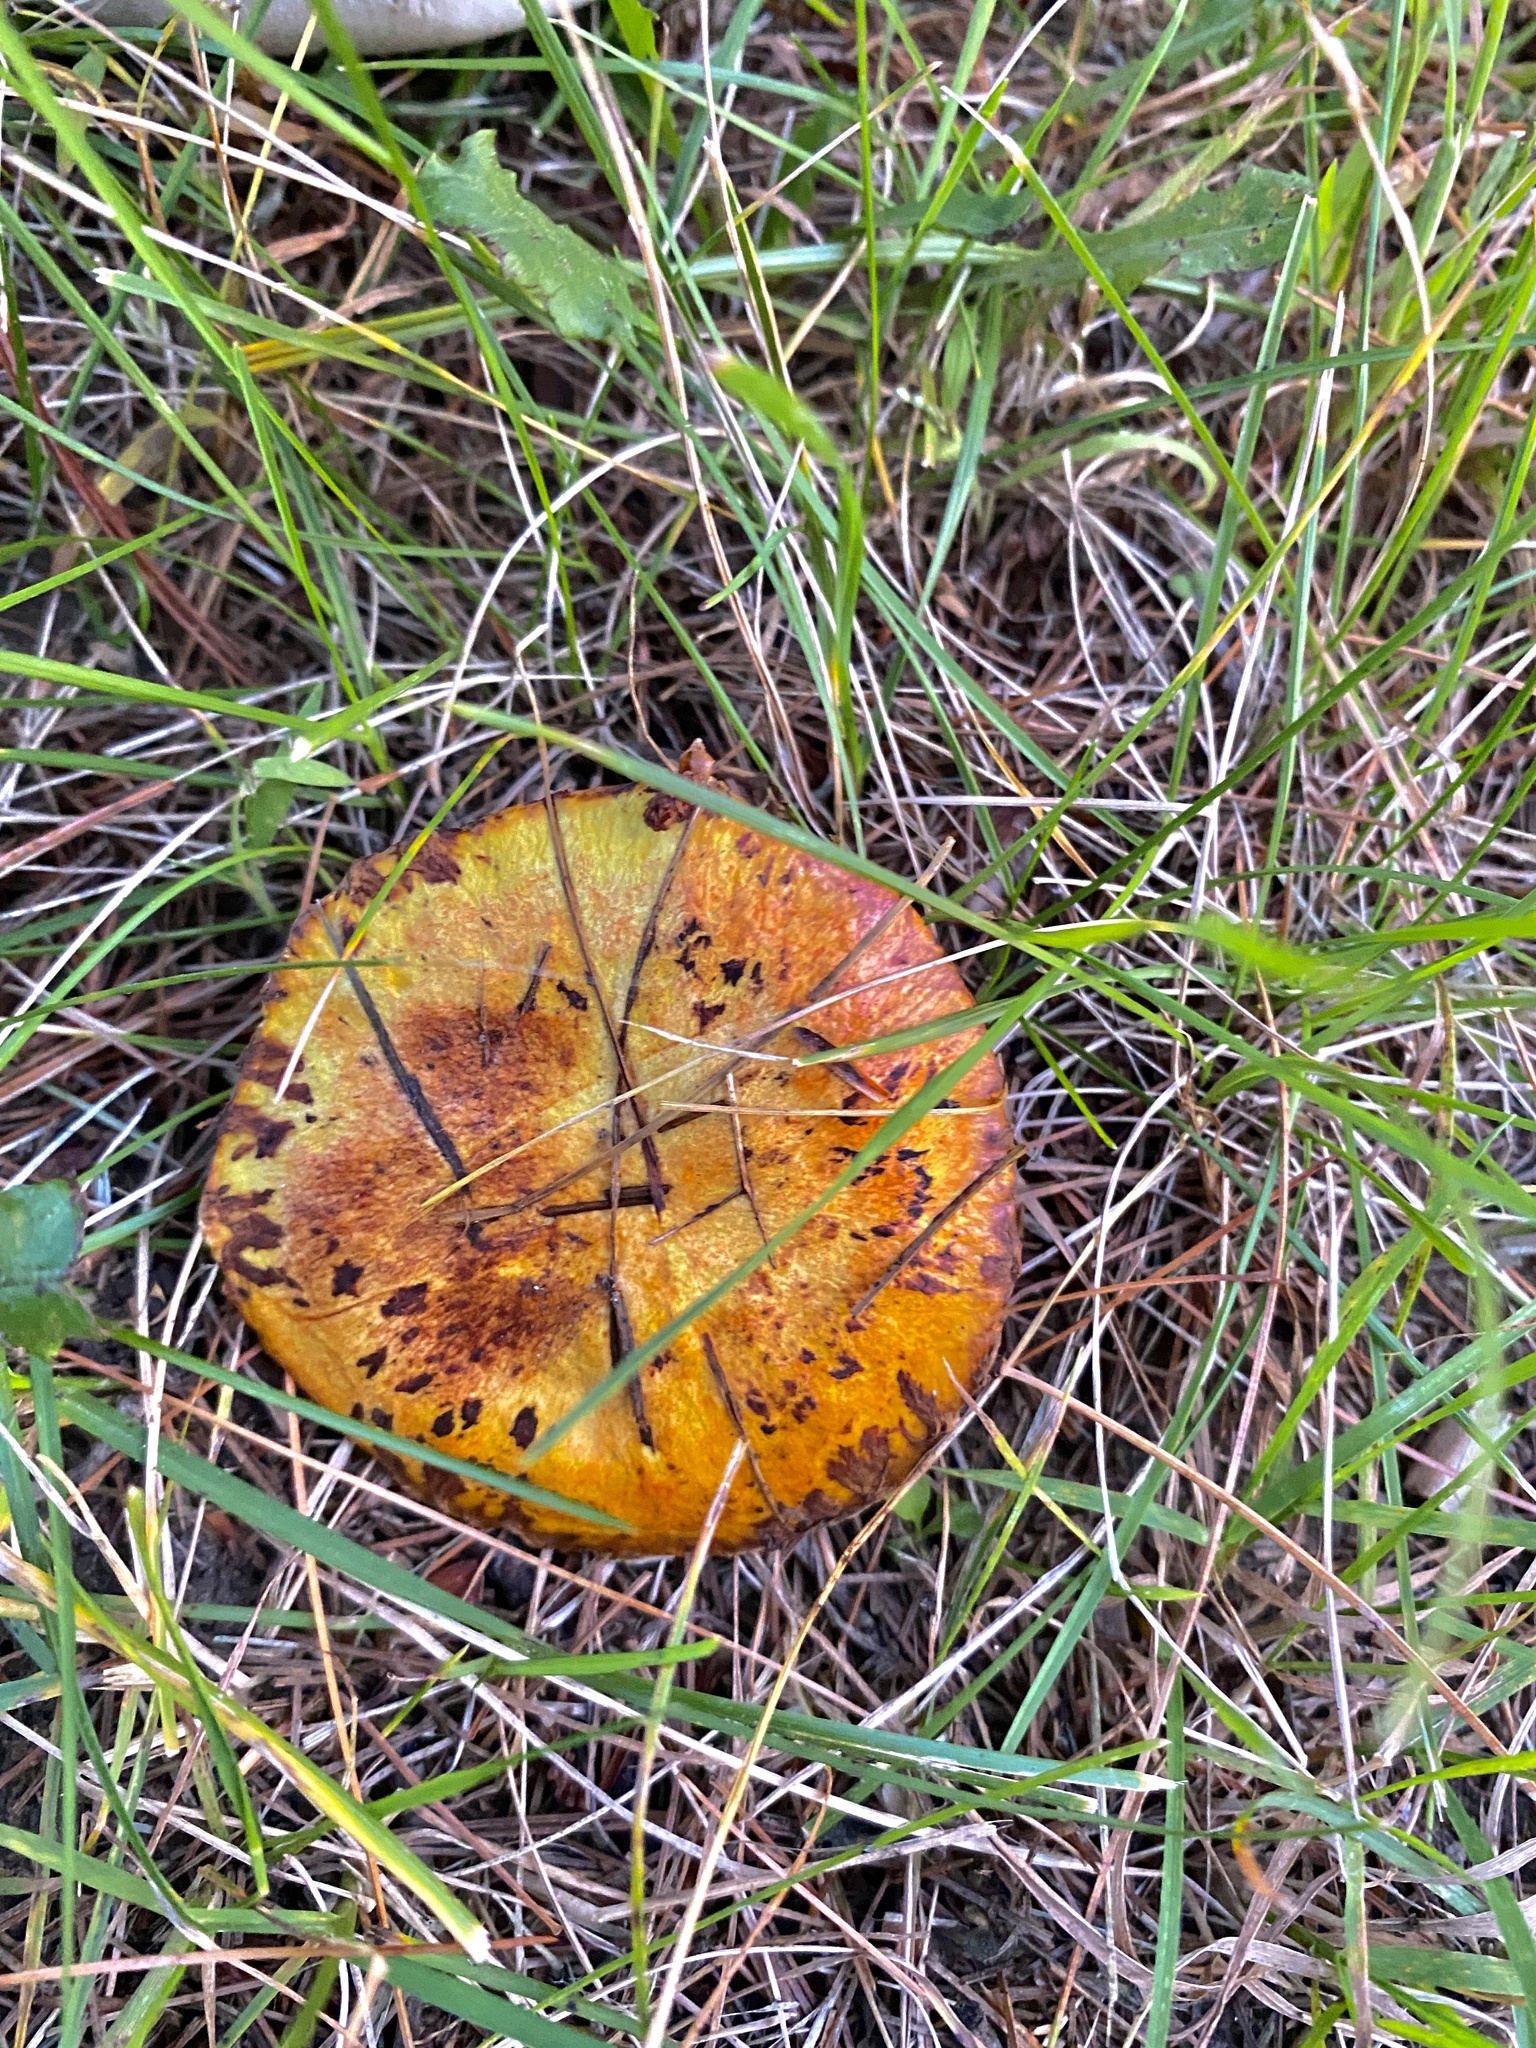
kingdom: Fungi
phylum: Basidiomycota
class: Agaricomycetes
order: Boletales
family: Suillaceae
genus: Suillus
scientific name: Suillus americanus
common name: Chicken fat mushroom
